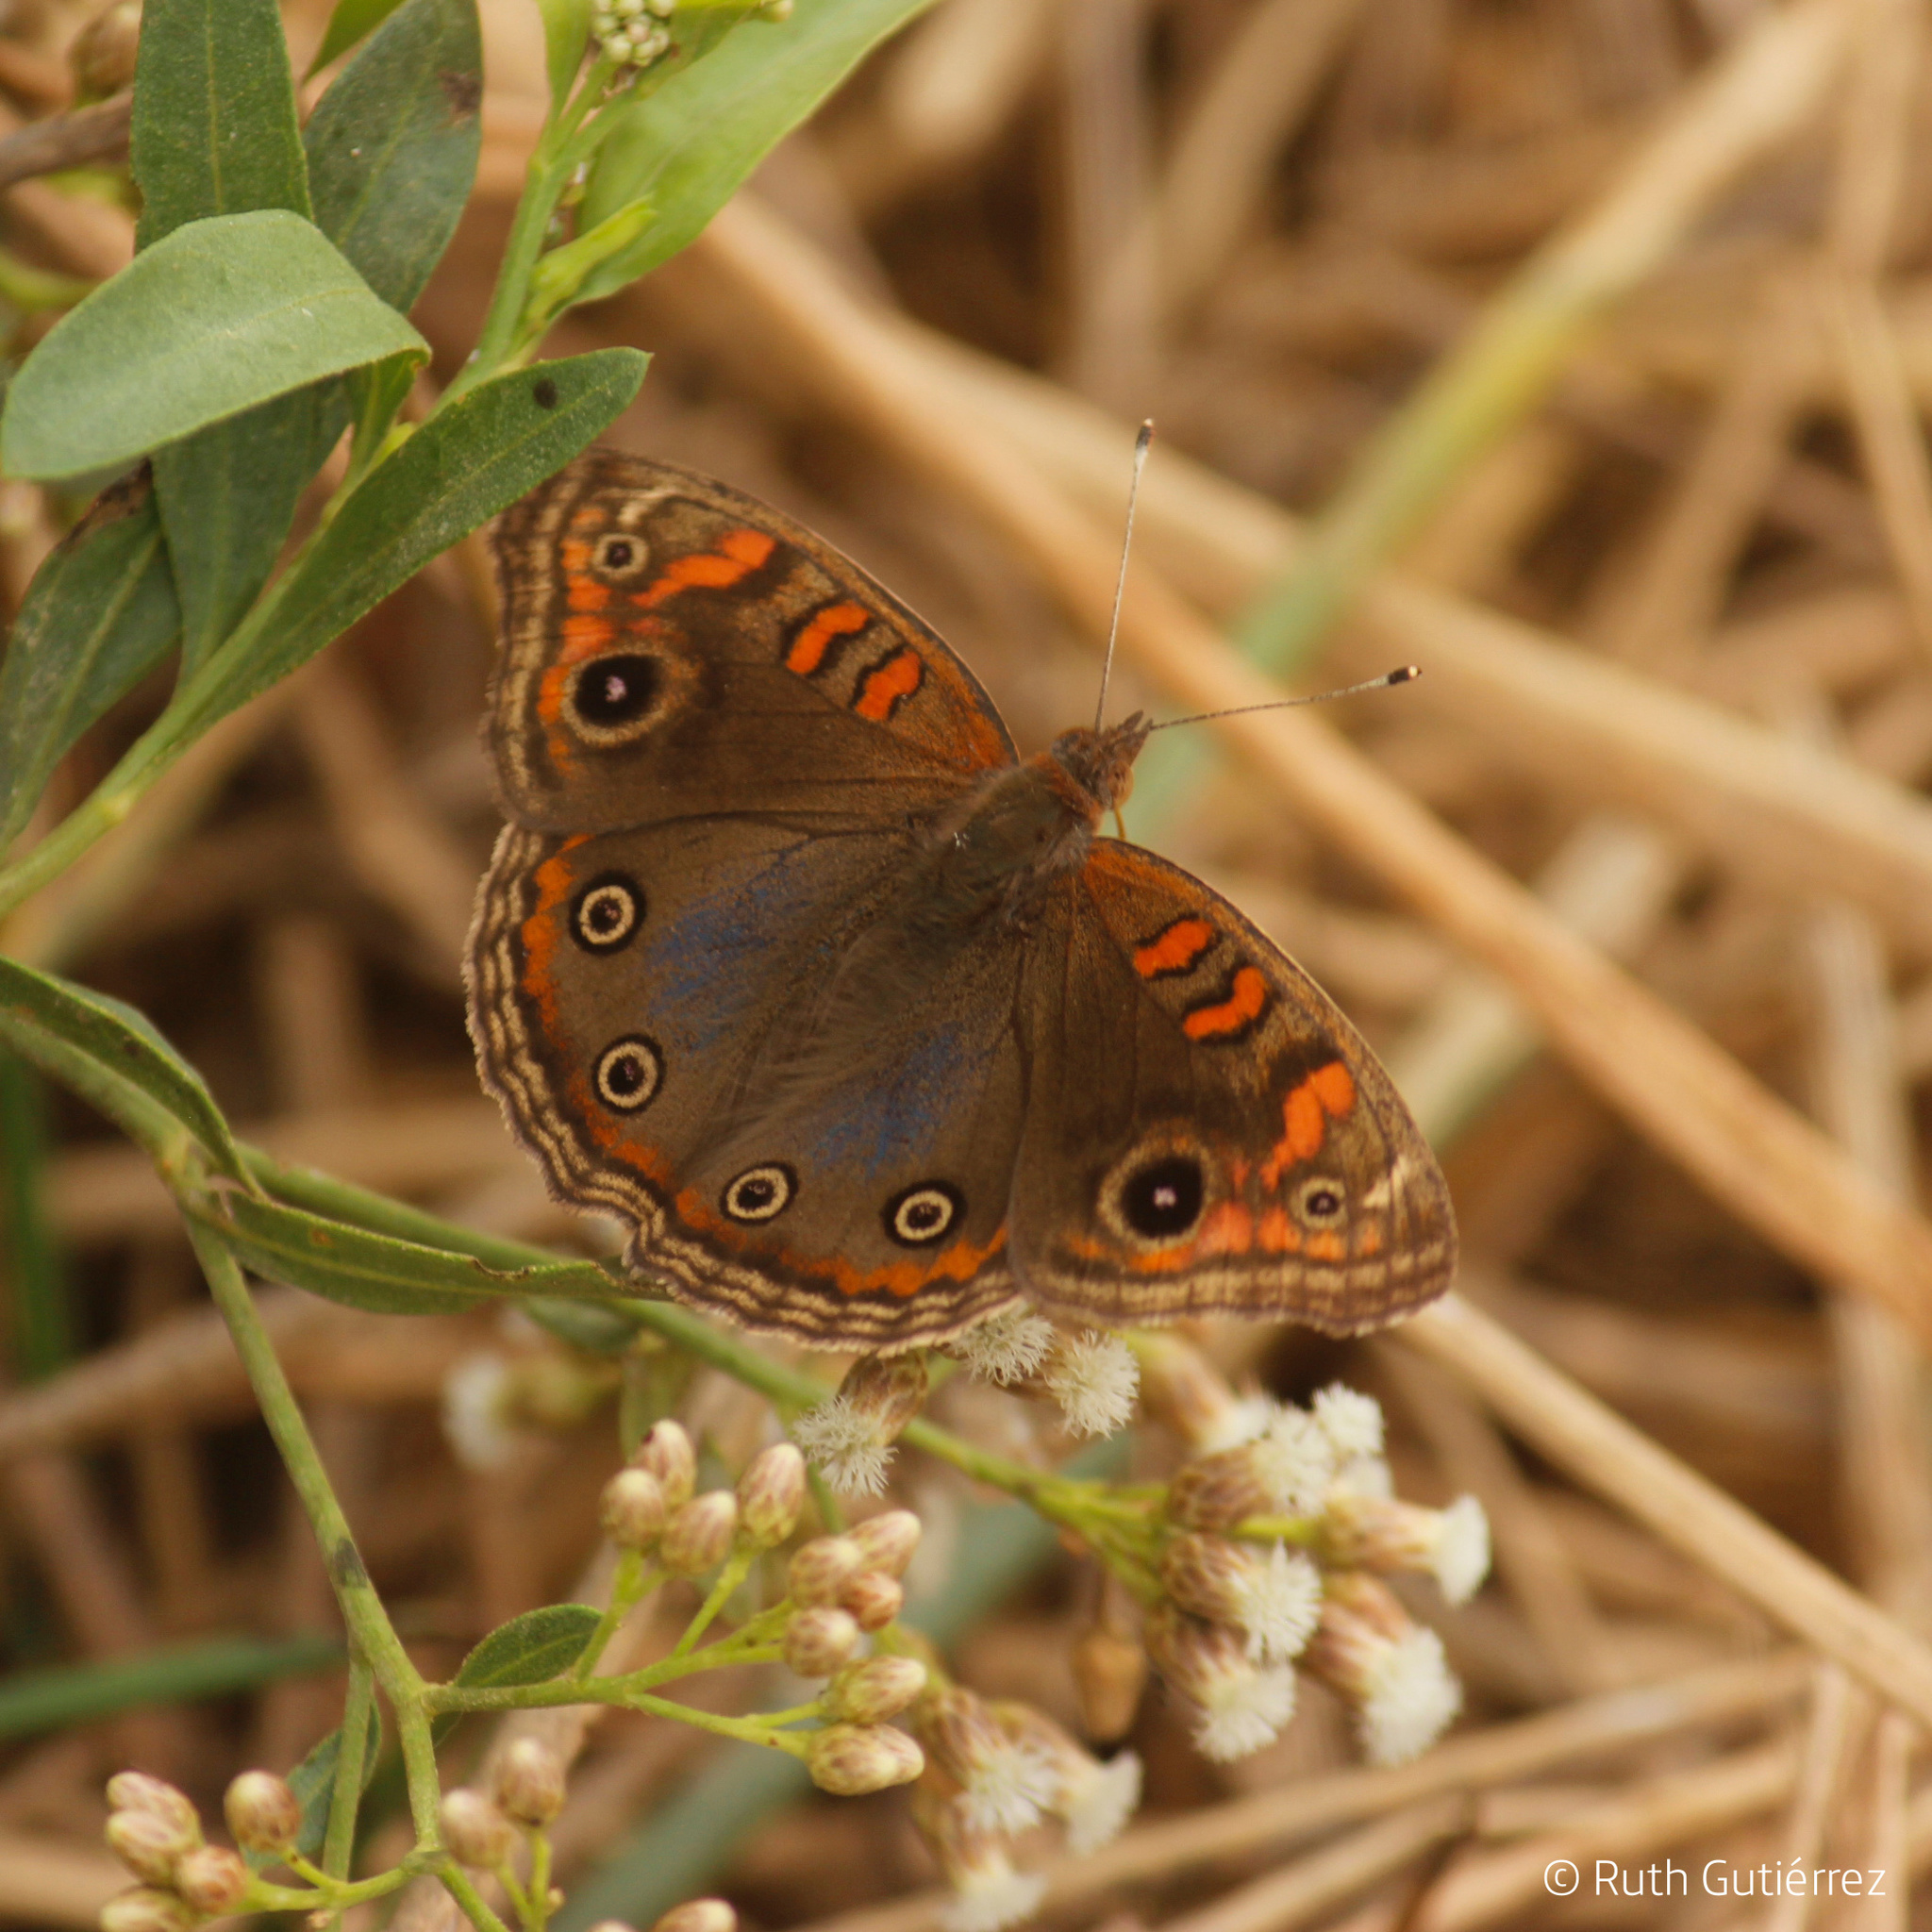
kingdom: Animalia
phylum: Arthropoda
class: Insecta
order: Lepidoptera
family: Nymphalidae
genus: Junonia
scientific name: Junonia lavinia
